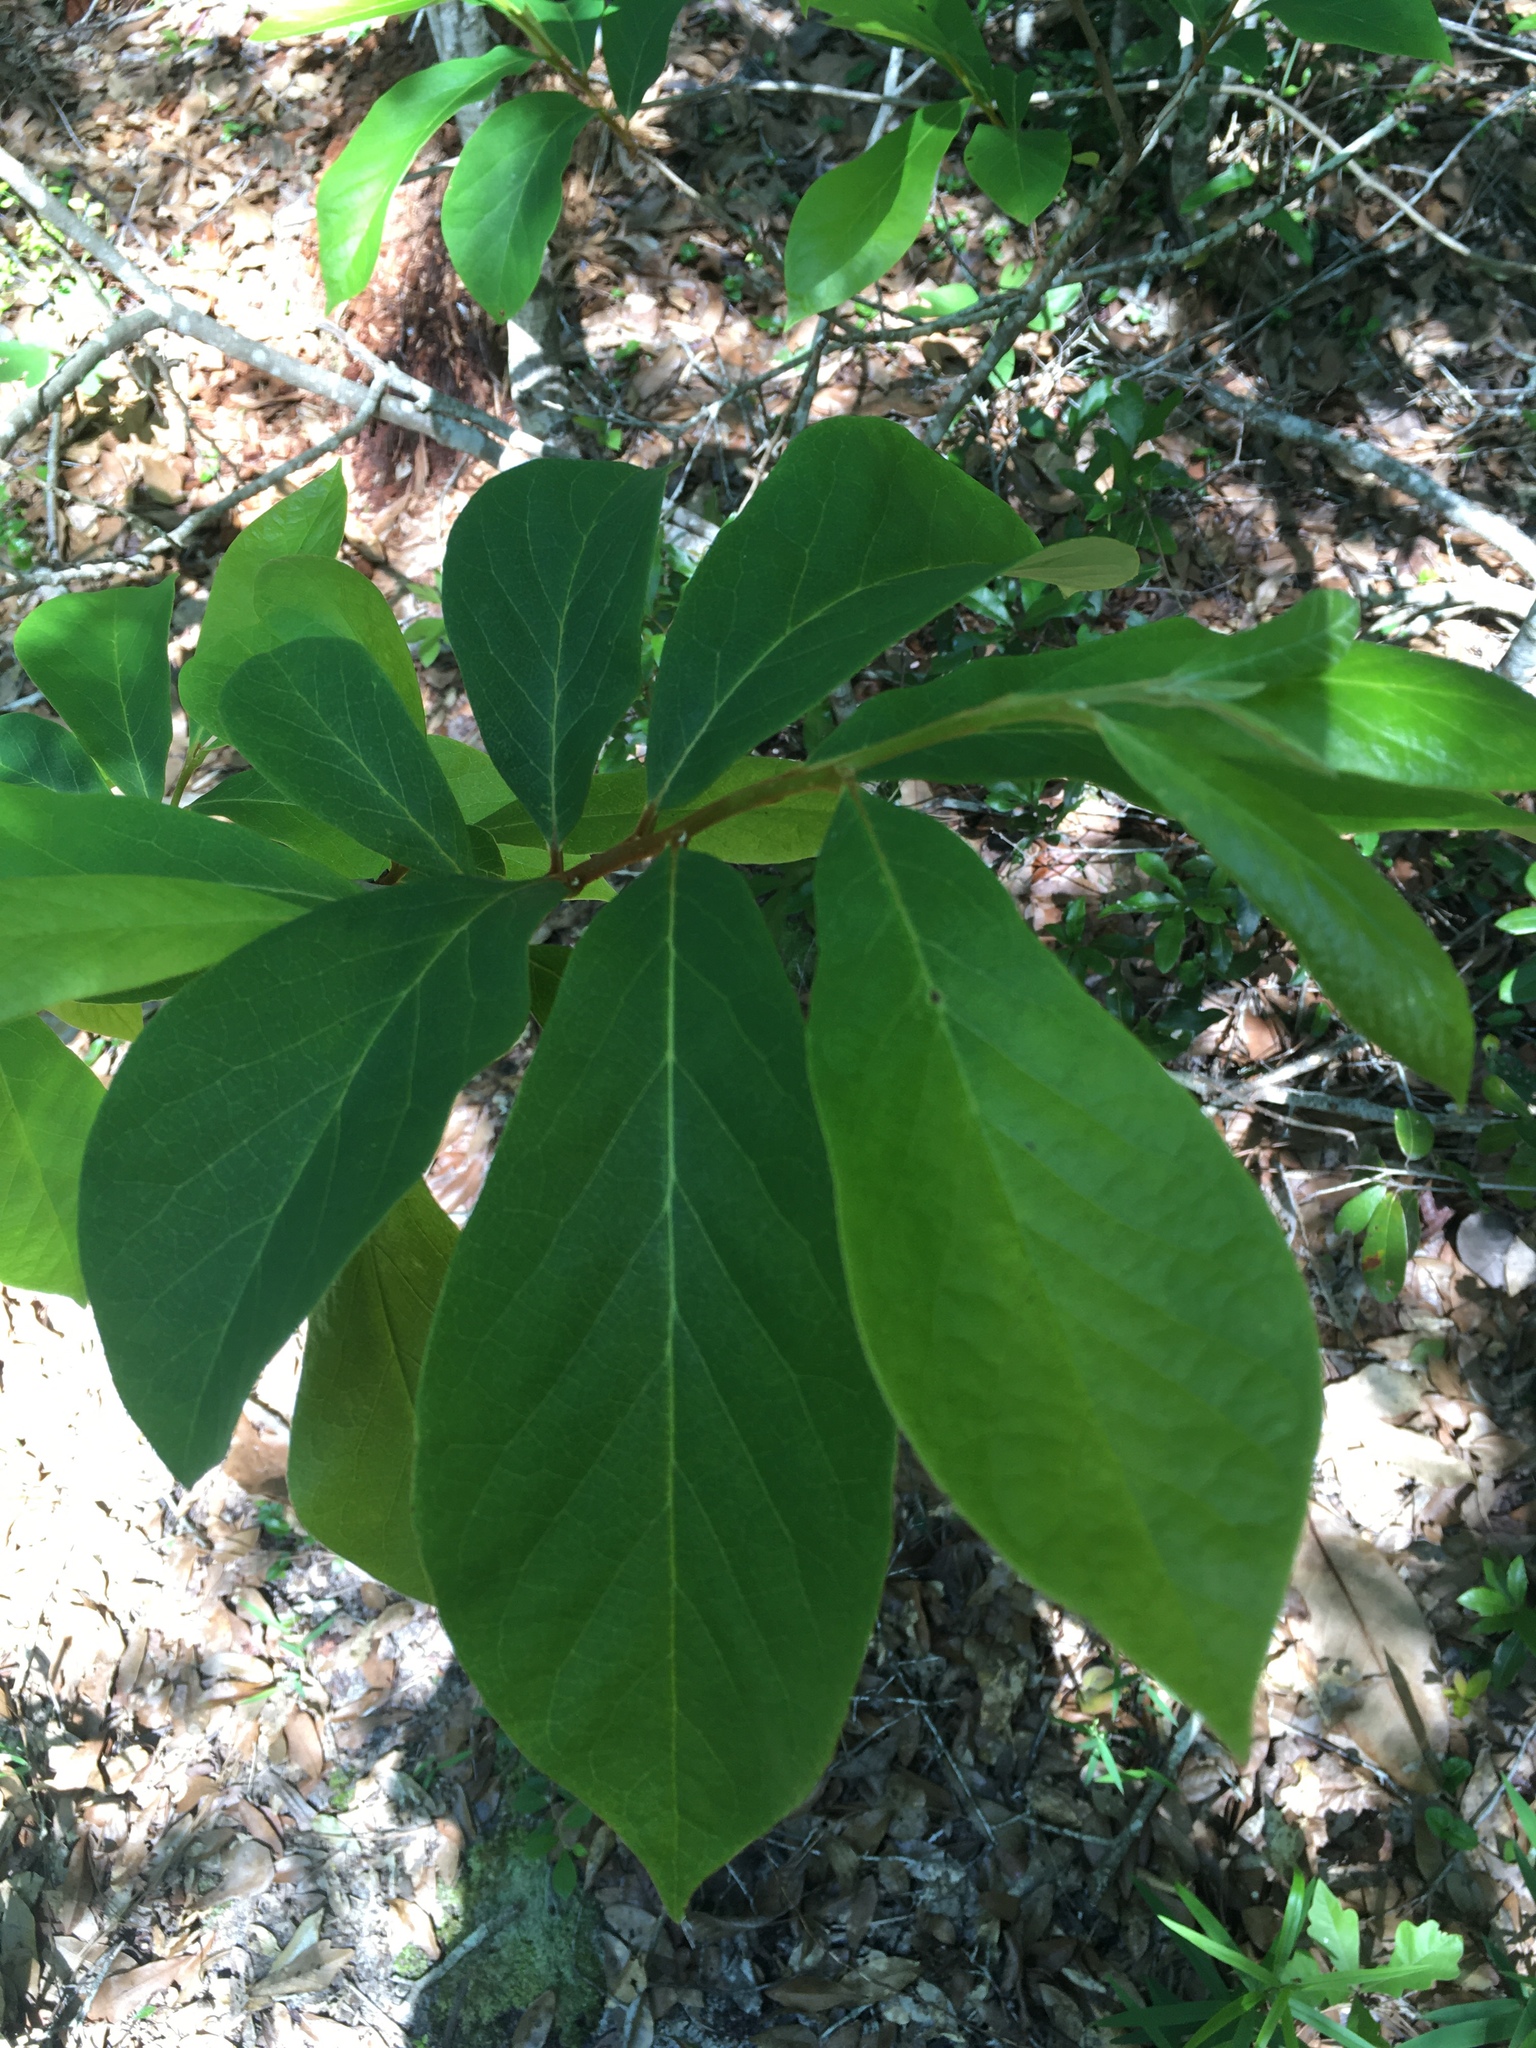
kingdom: Plantae
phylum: Tracheophyta
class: Magnoliopsida
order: Magnoliales
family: Annonaceae
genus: Asimina
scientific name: Asimina parviflora
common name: Dwarf pawpaw
